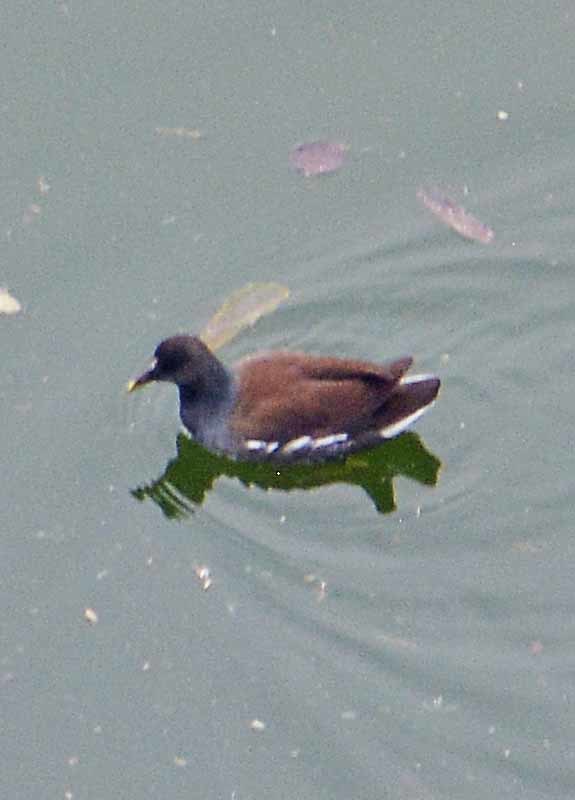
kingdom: Animalia
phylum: Chordata
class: Aves
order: Gruiformes
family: Rallidae
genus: Gallinula
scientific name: Gallinula chloropus
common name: Common moorhen
